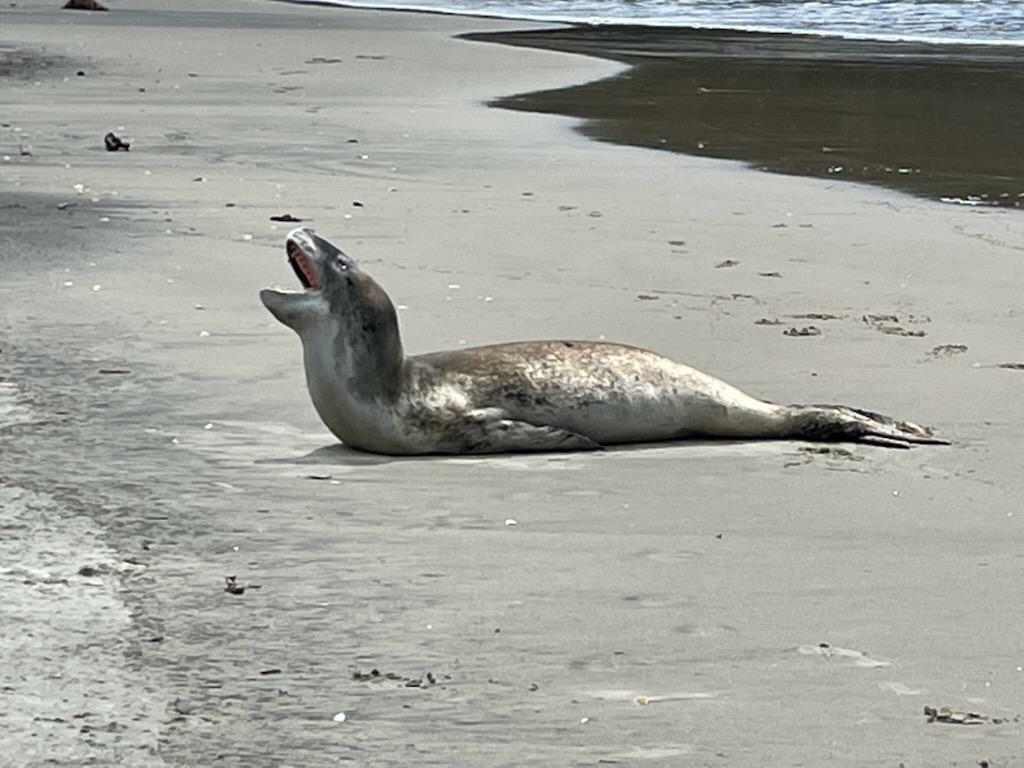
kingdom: Animalia
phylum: Chordata
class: Mammalia
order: Carnivora
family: Phocidae
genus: Hydrurga
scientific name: Hydrurga leptonyx
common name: Leopard seal
